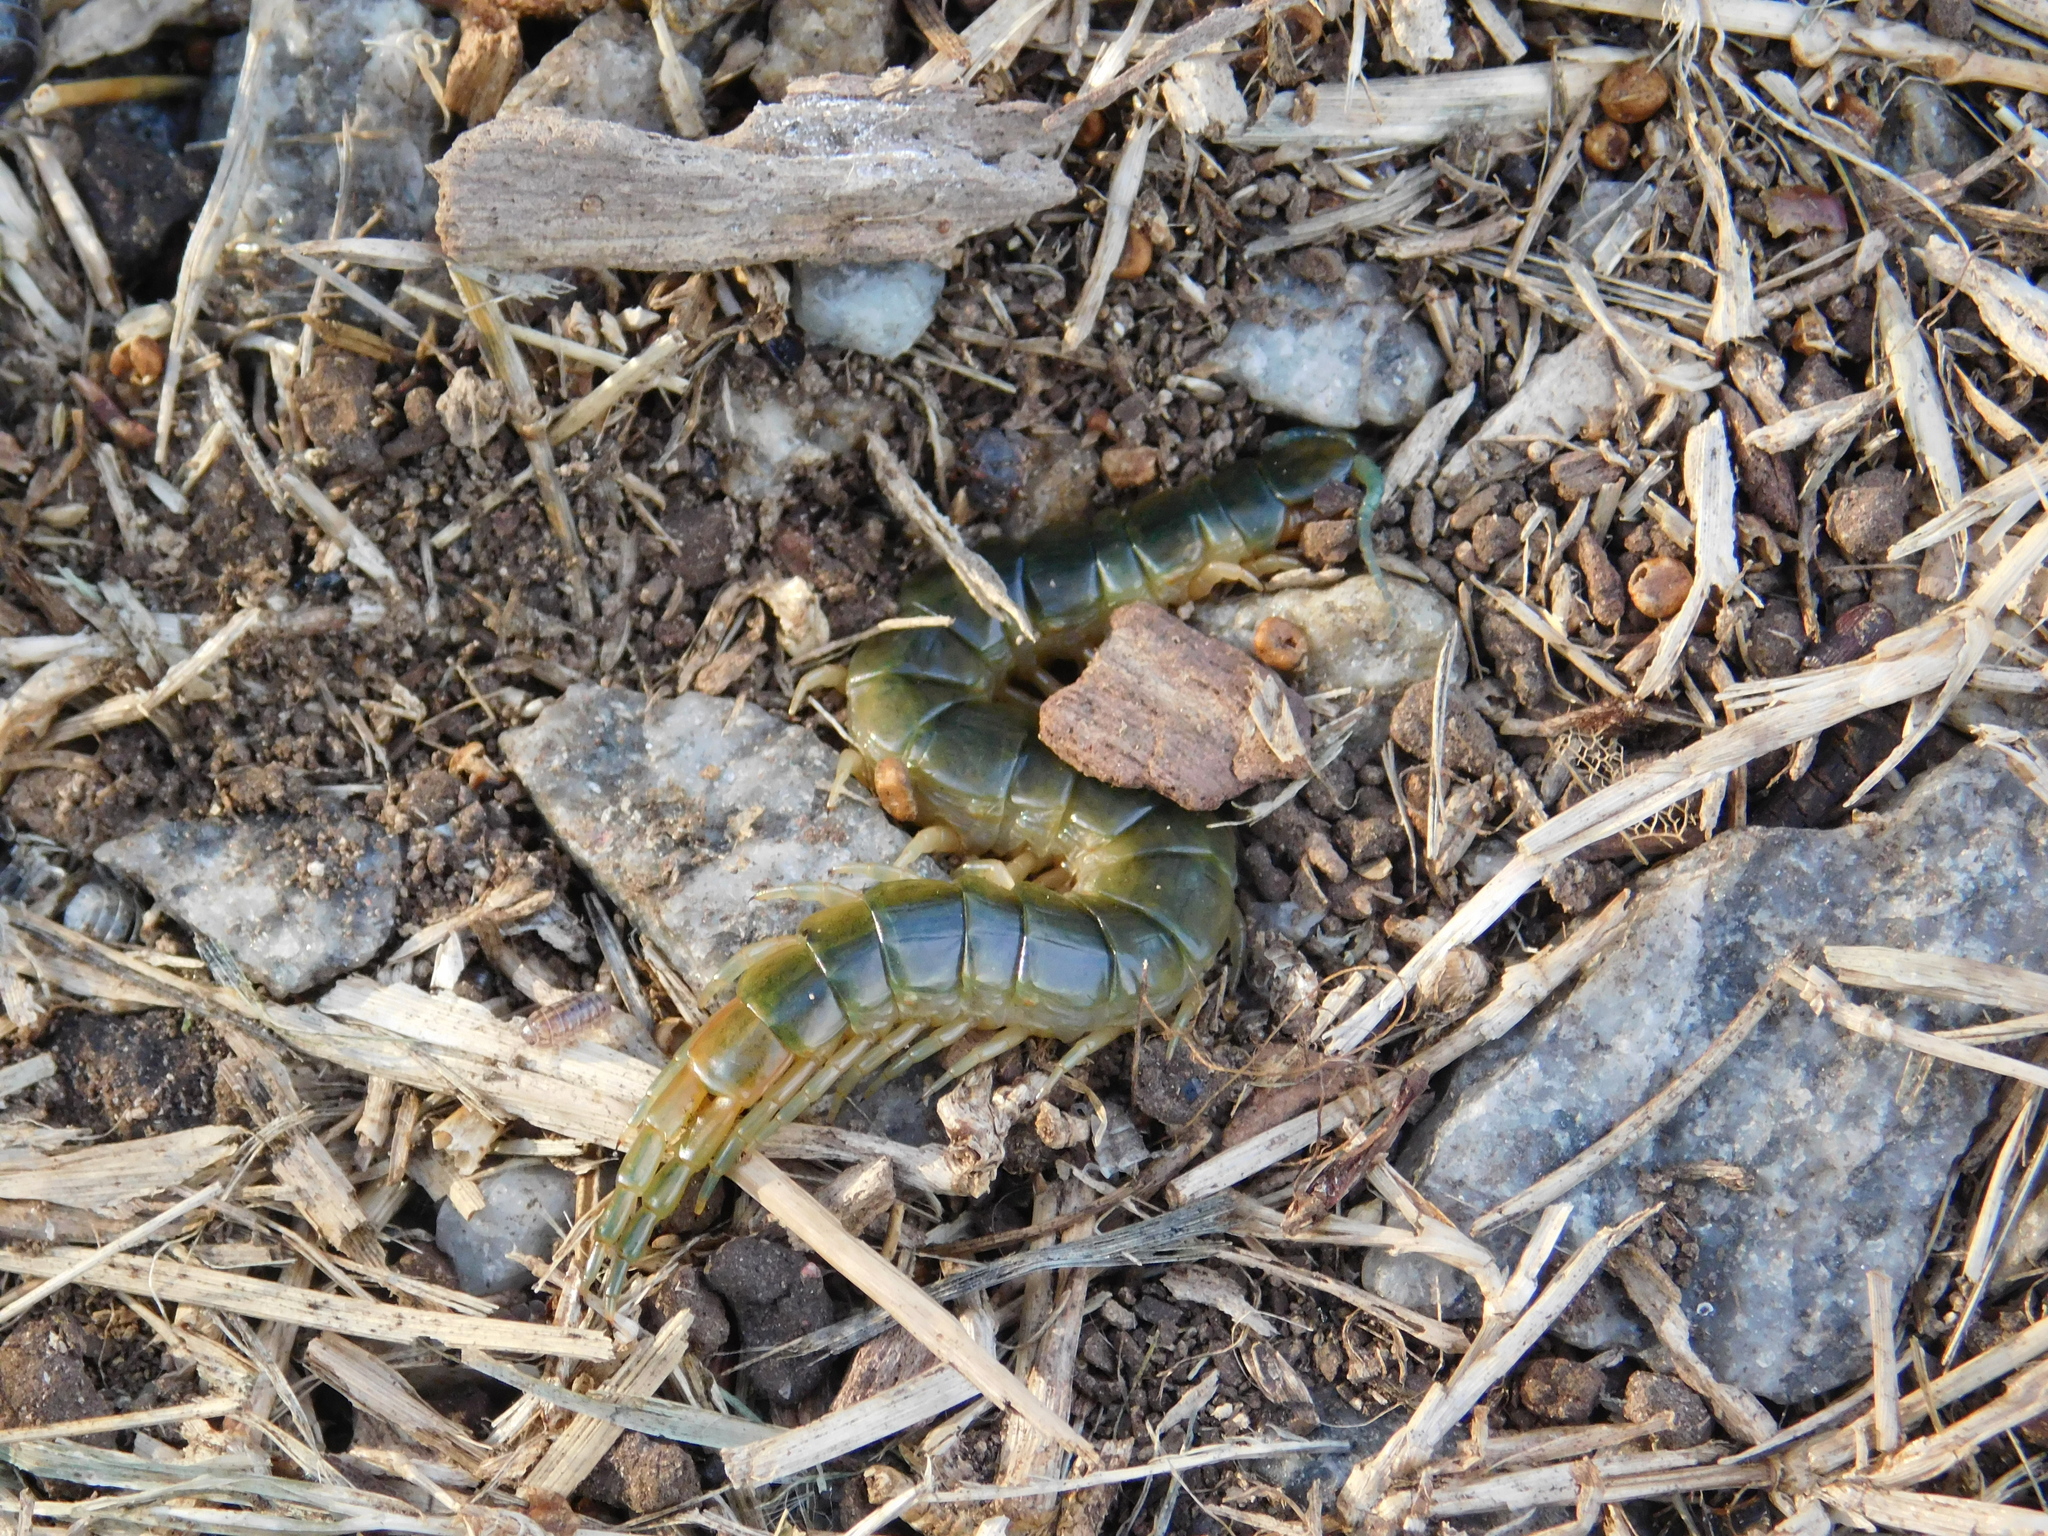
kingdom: Animalia
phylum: Arthropoda
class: Chilopoda
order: Scolopendromorpha
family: Scolopendridae
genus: Hemiscolopendra
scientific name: Hemiscolopendra laevigata
